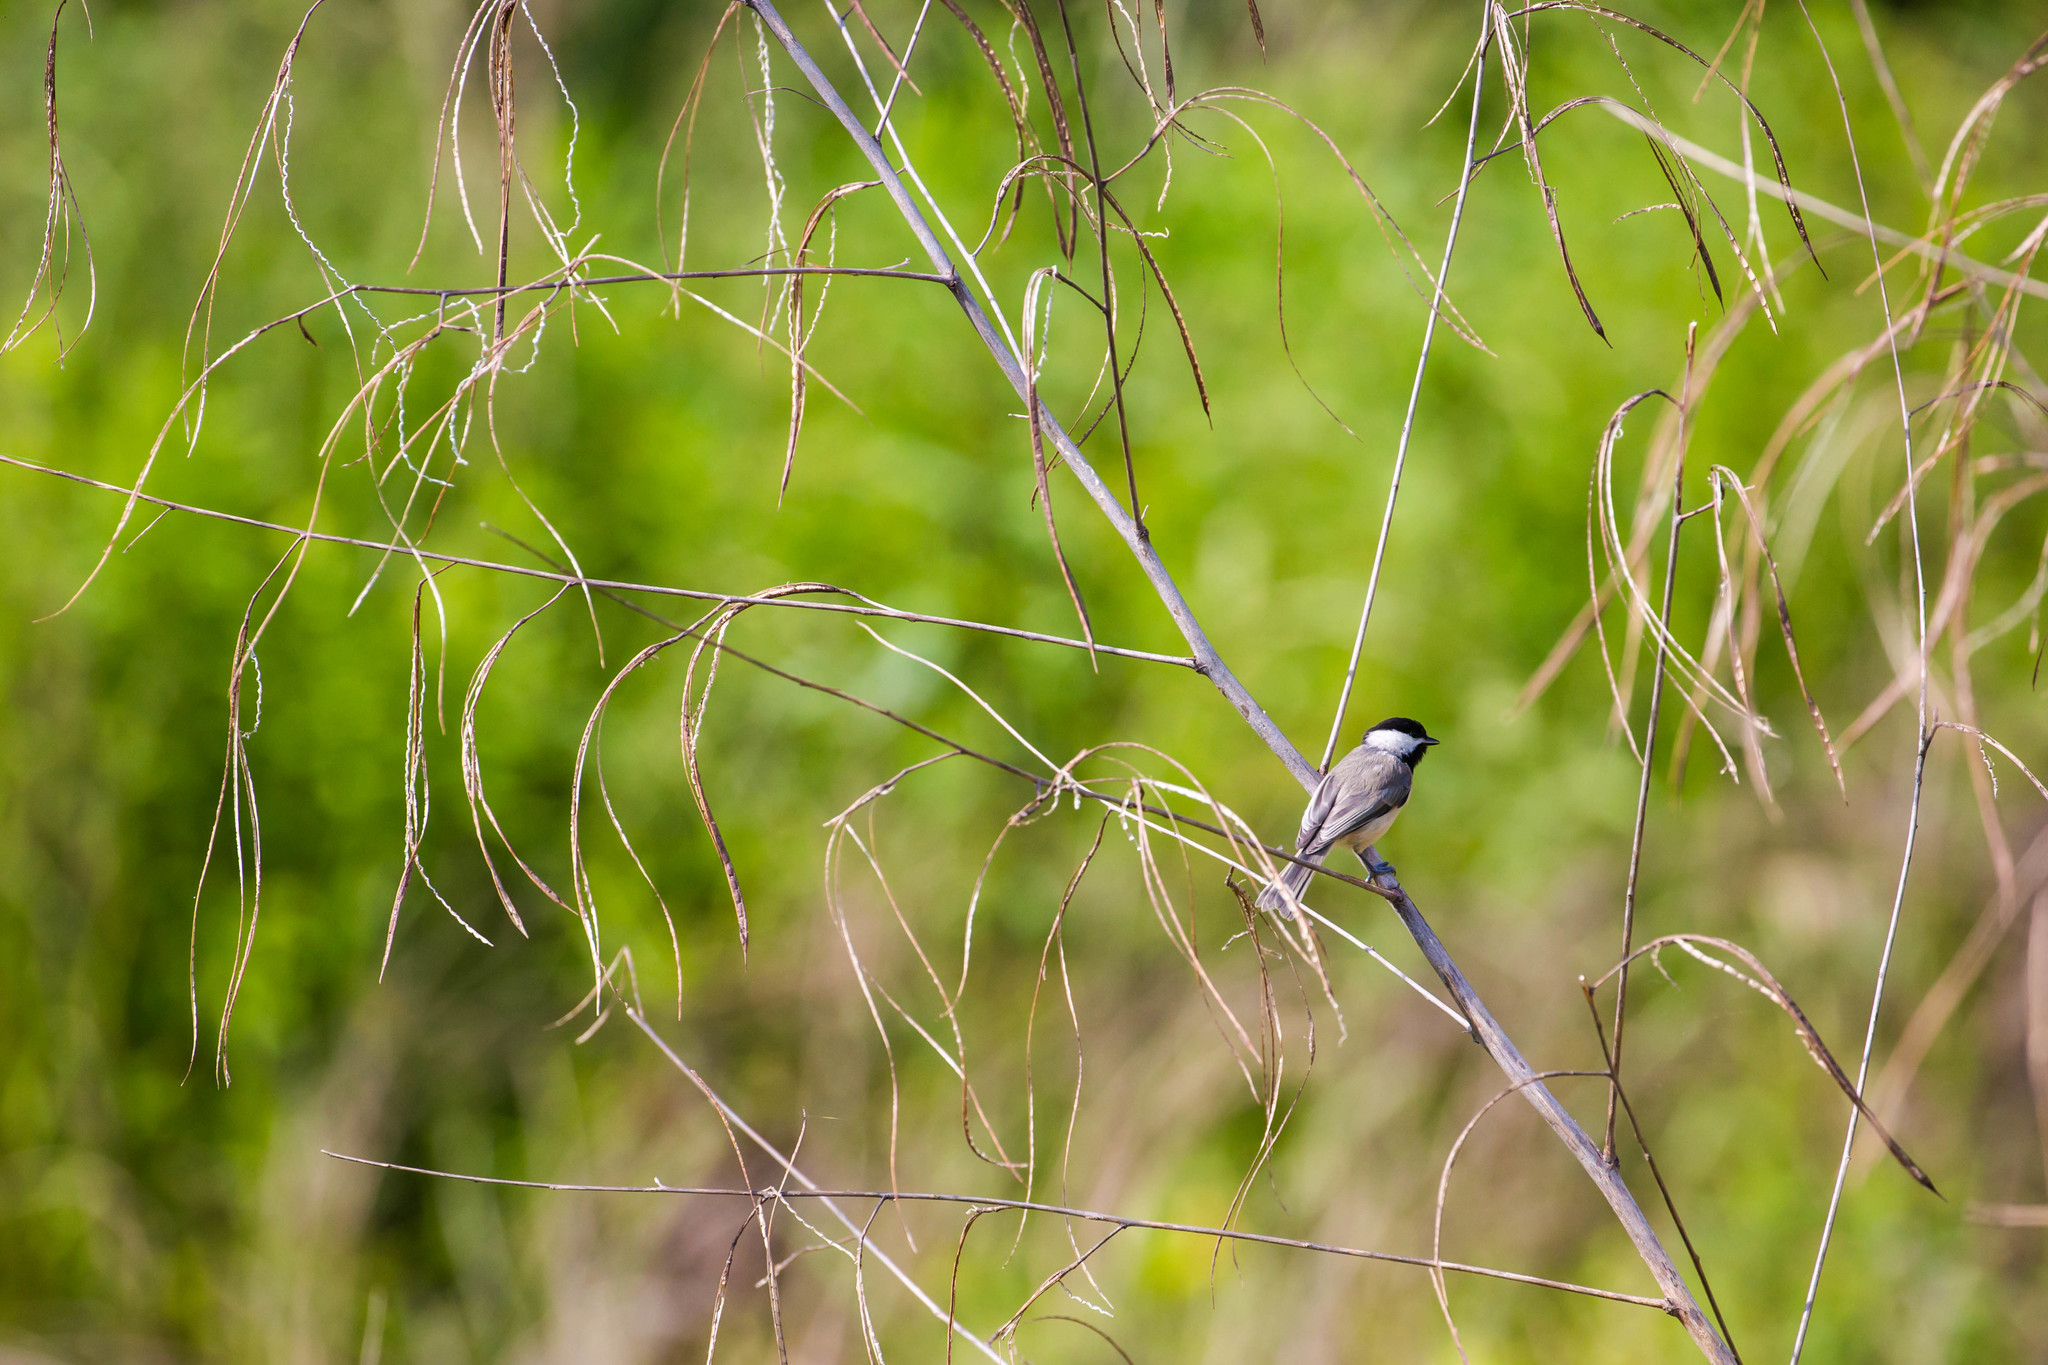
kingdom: Animalia
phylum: Chordata
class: Aves
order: Passeriformes
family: Paridae
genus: Poecile
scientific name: Poecile carolinensis
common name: Carolina chickadee
